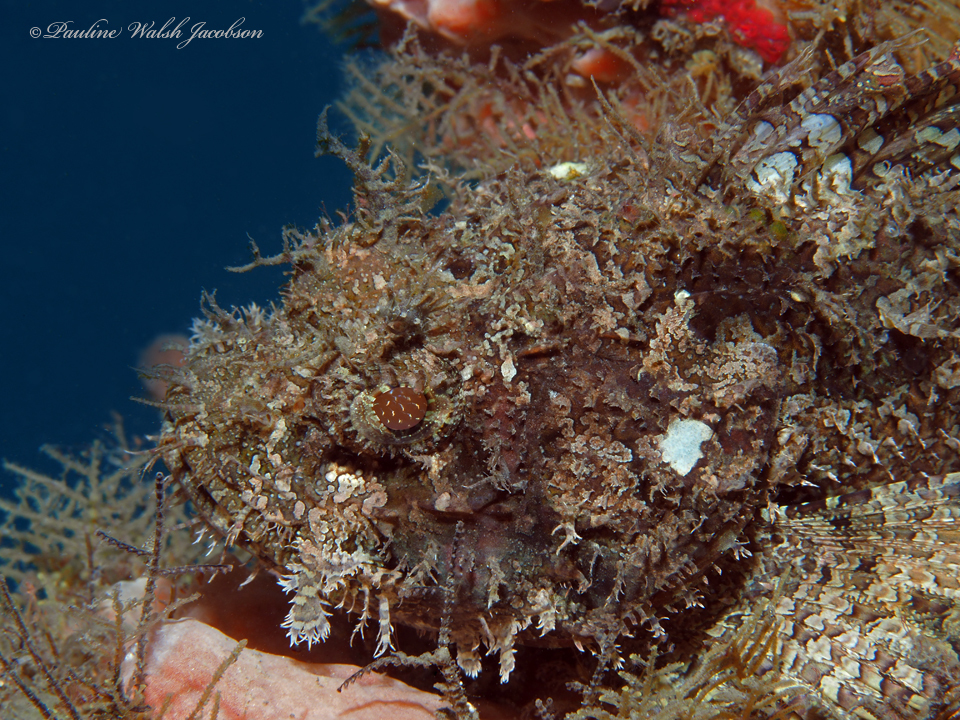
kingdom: Animalia
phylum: Chordata
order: Scorpaeniformes
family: Scorpaenidae
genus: Scorpaena
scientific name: Scorpaena plumieri
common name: Spotted scorpionfish
